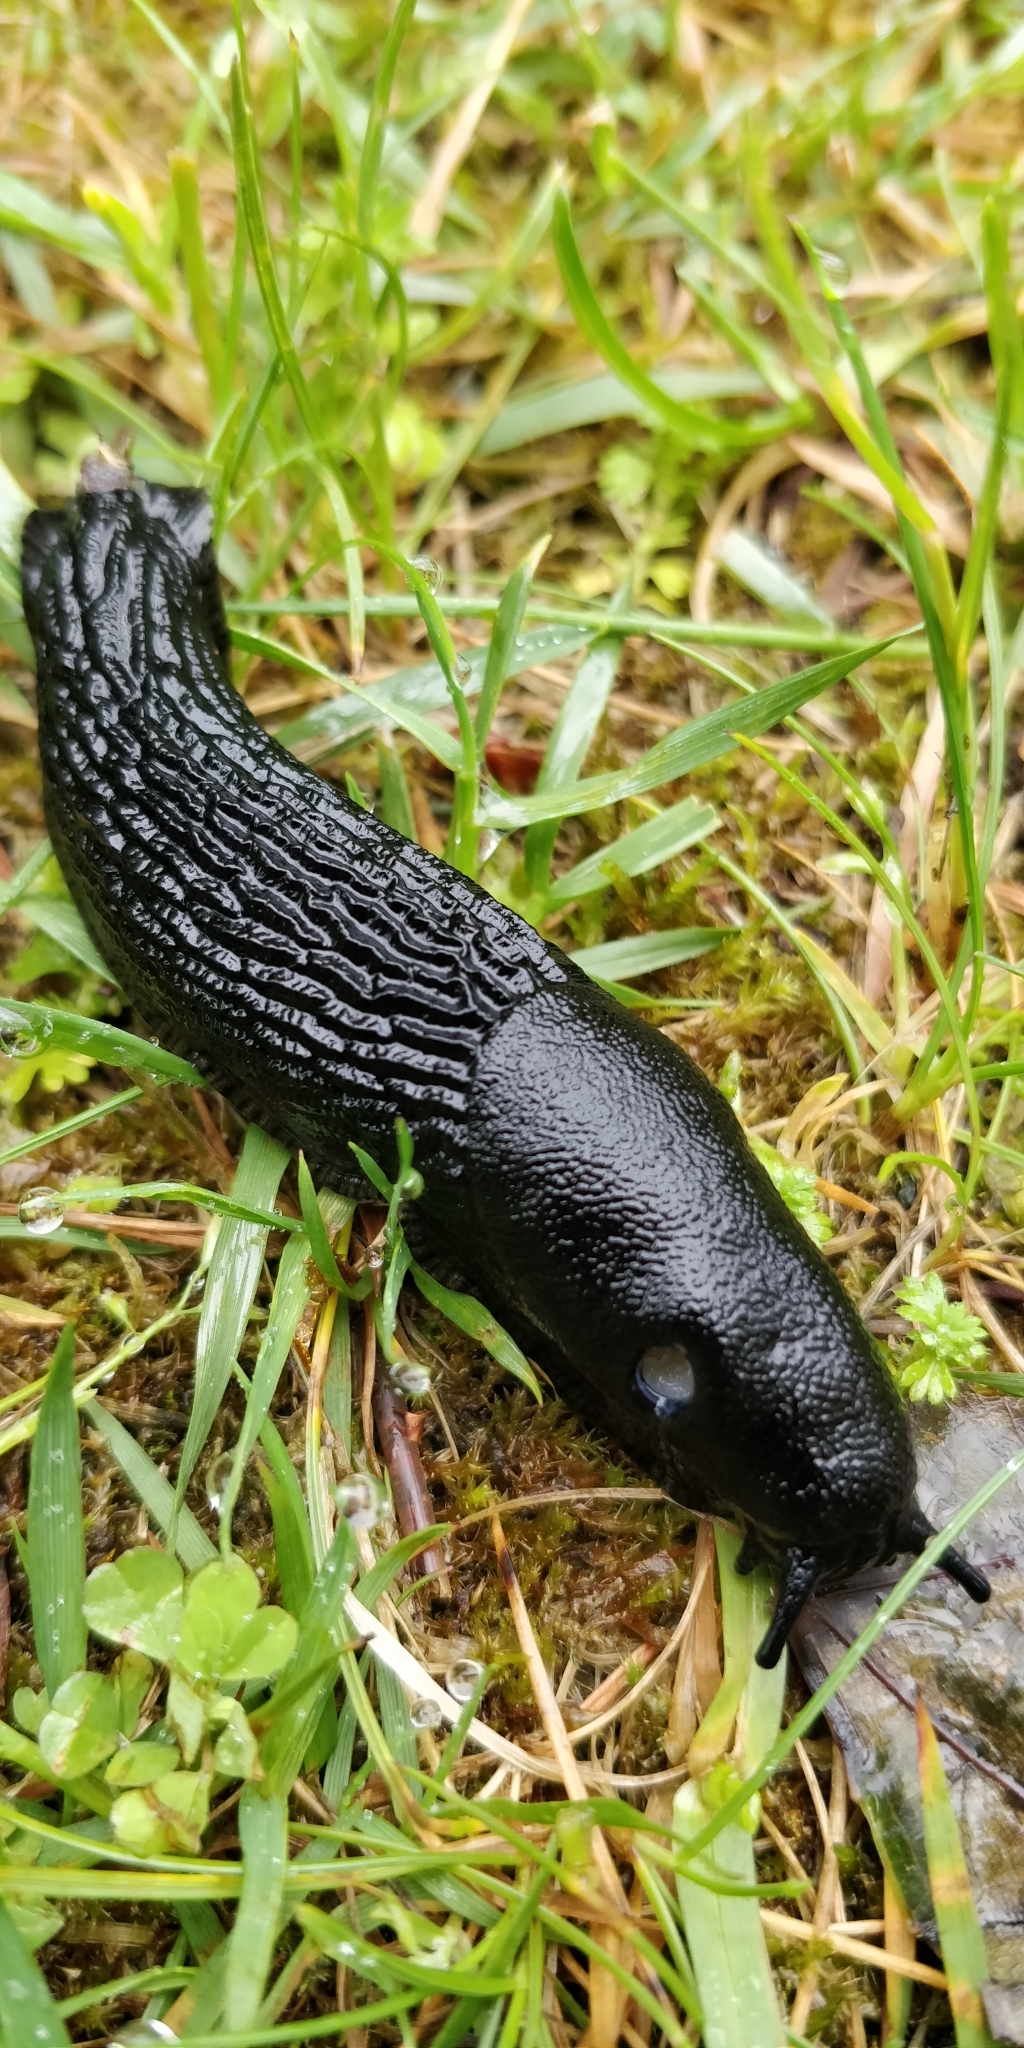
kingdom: Animalia
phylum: Mollusca
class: Gastropoda
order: Stylommatophora
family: Arionidae
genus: Arion
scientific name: Arion
